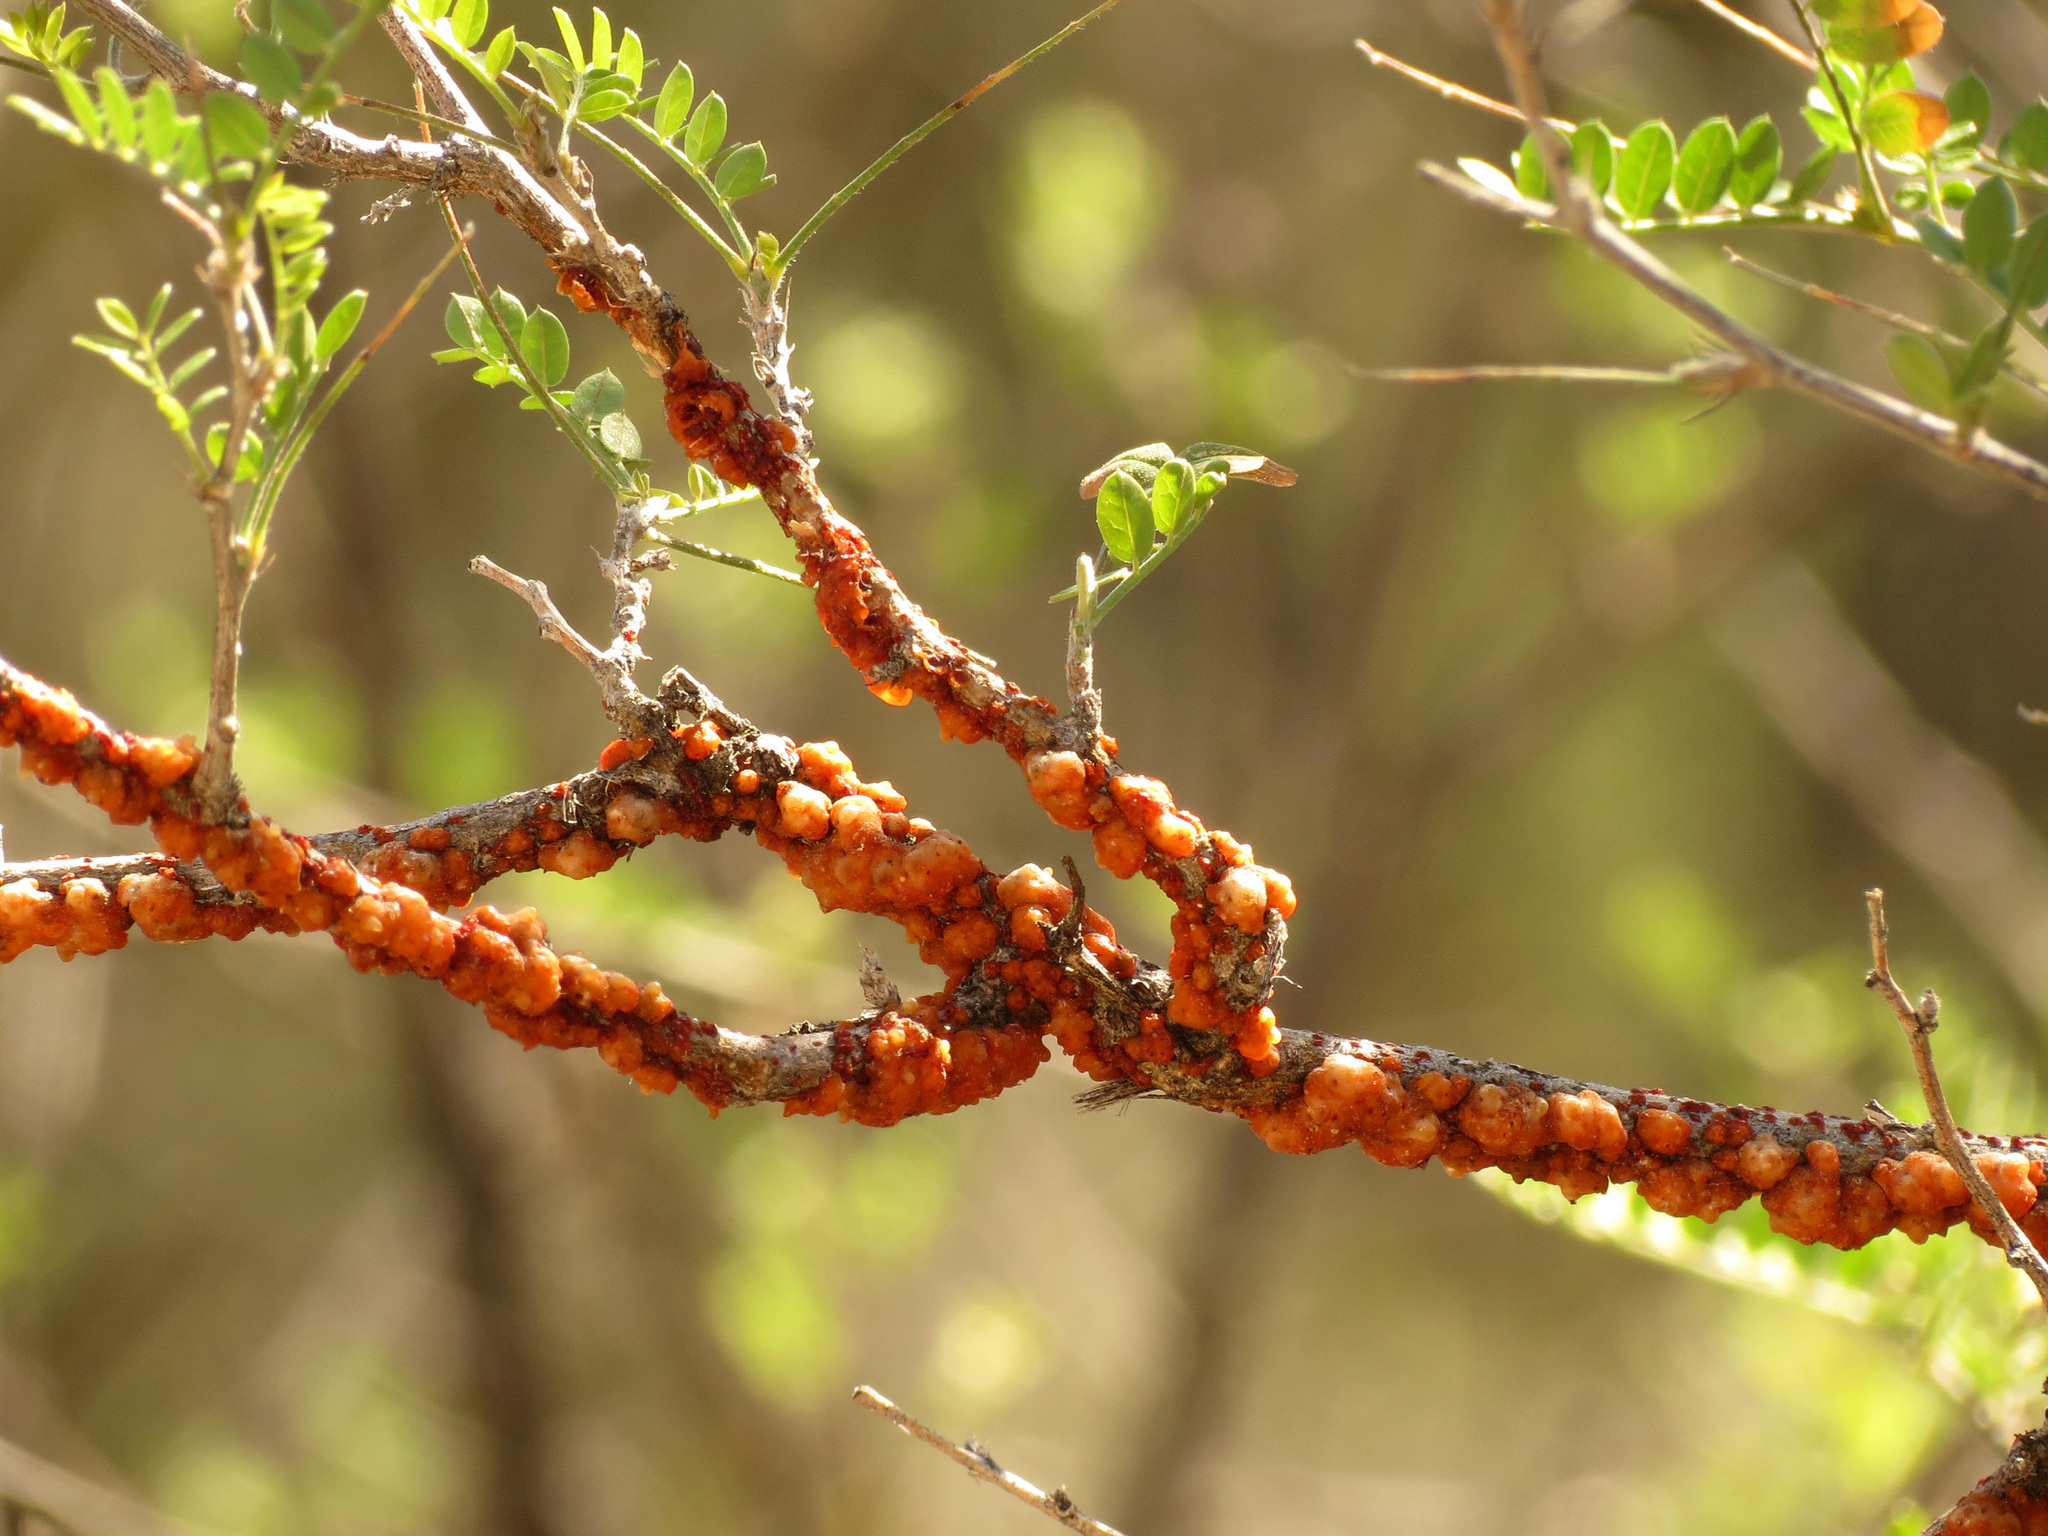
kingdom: Animalia
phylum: Arthropoda
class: Insecta
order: Hemiptera
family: Kerriidae
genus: Tachardiella
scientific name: Tachardiella fulgens
